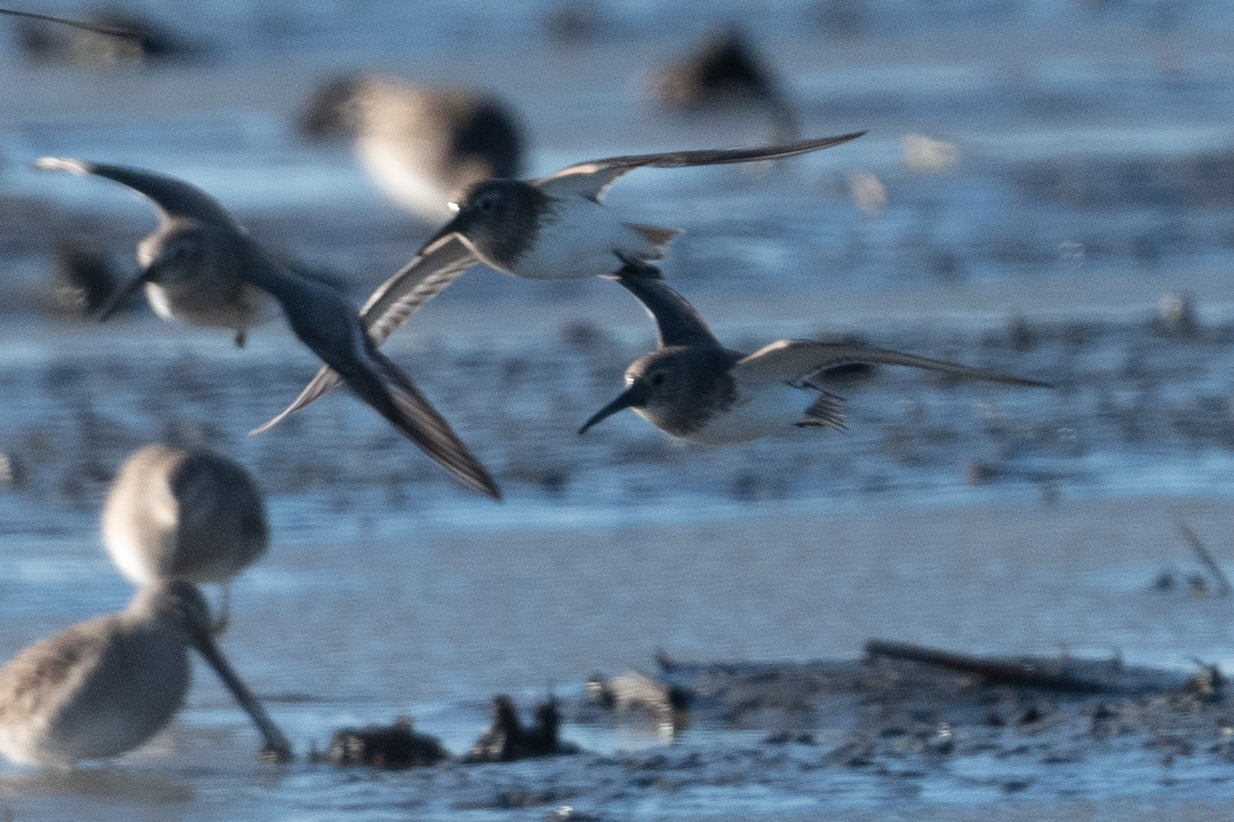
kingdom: Animalia
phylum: Chordata
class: Aves
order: Charadriiformes
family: Scolopacidae
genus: Calidris
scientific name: Calidris alpina
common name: Dunlin
